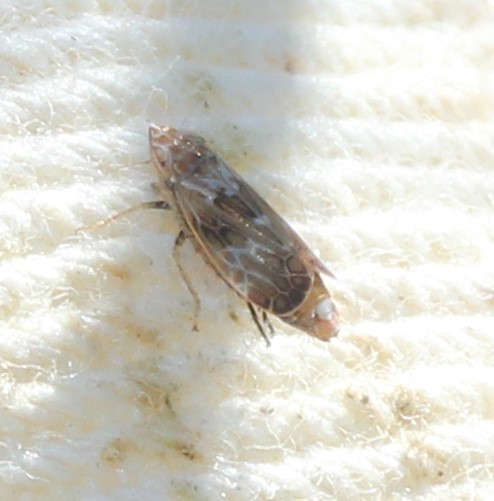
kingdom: Animalia
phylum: Arthropoda
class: Insecta
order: Hemiptera
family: Cicadellidae
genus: Latalus
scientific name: Latalus sayii
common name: Say’s leafhopper
